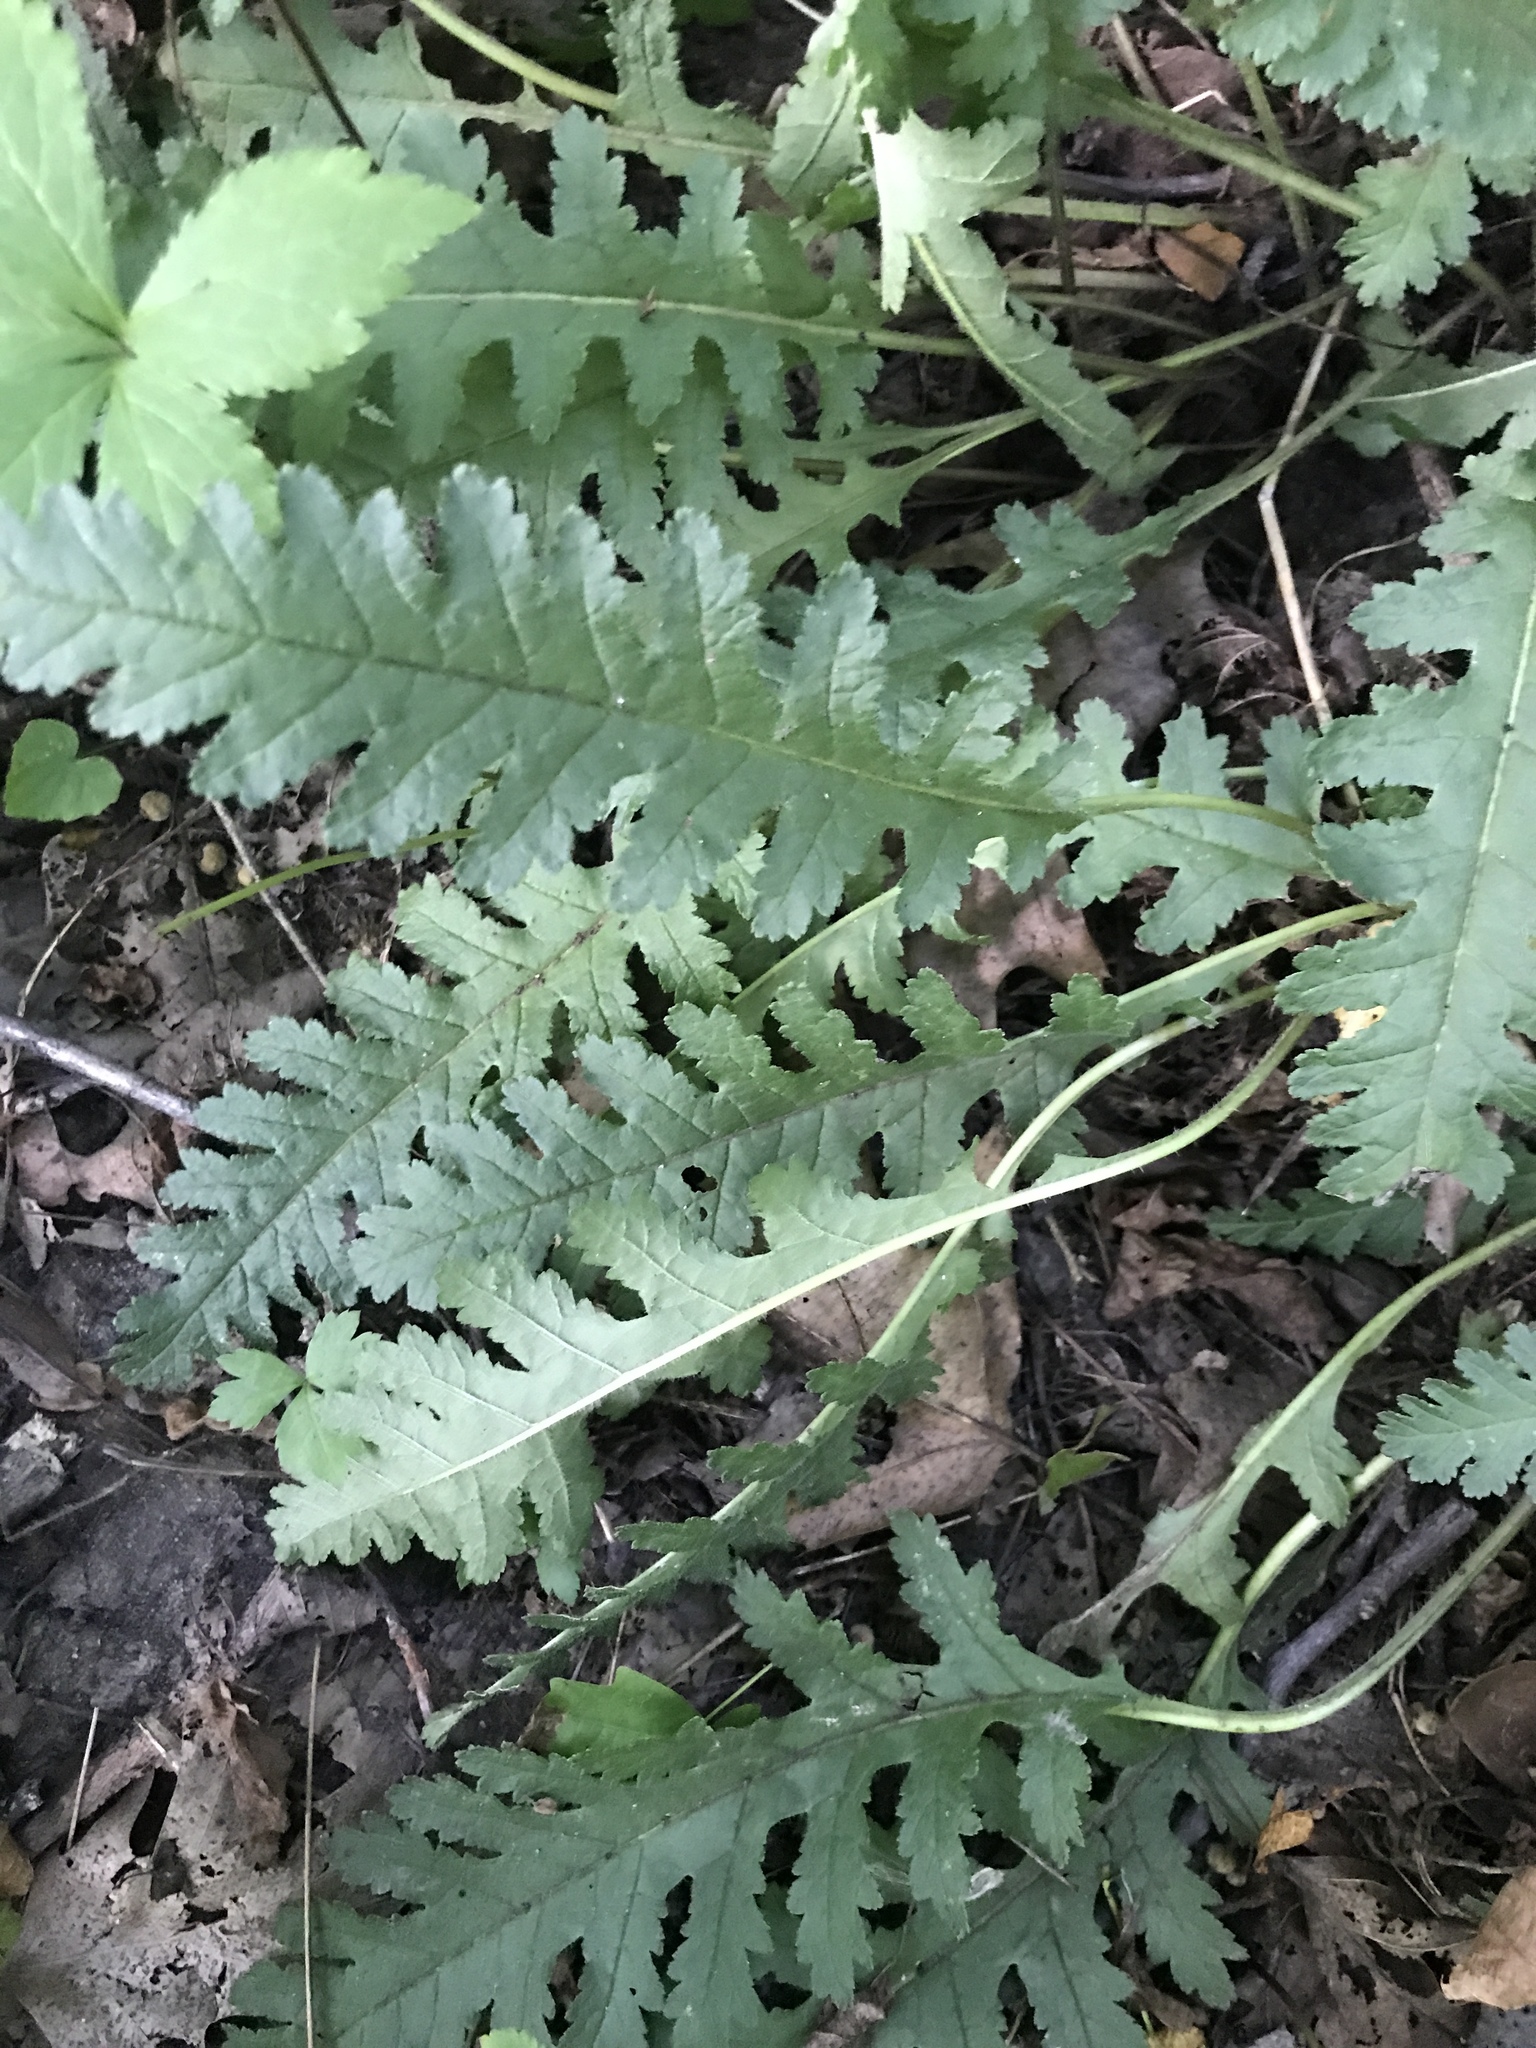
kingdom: Plantae
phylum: Tracheophyta
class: Magnoliopsida
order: Lamiales
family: Orobanchaceae
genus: Pedicularis
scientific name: Pedicularis canadensis
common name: Early lousewort
